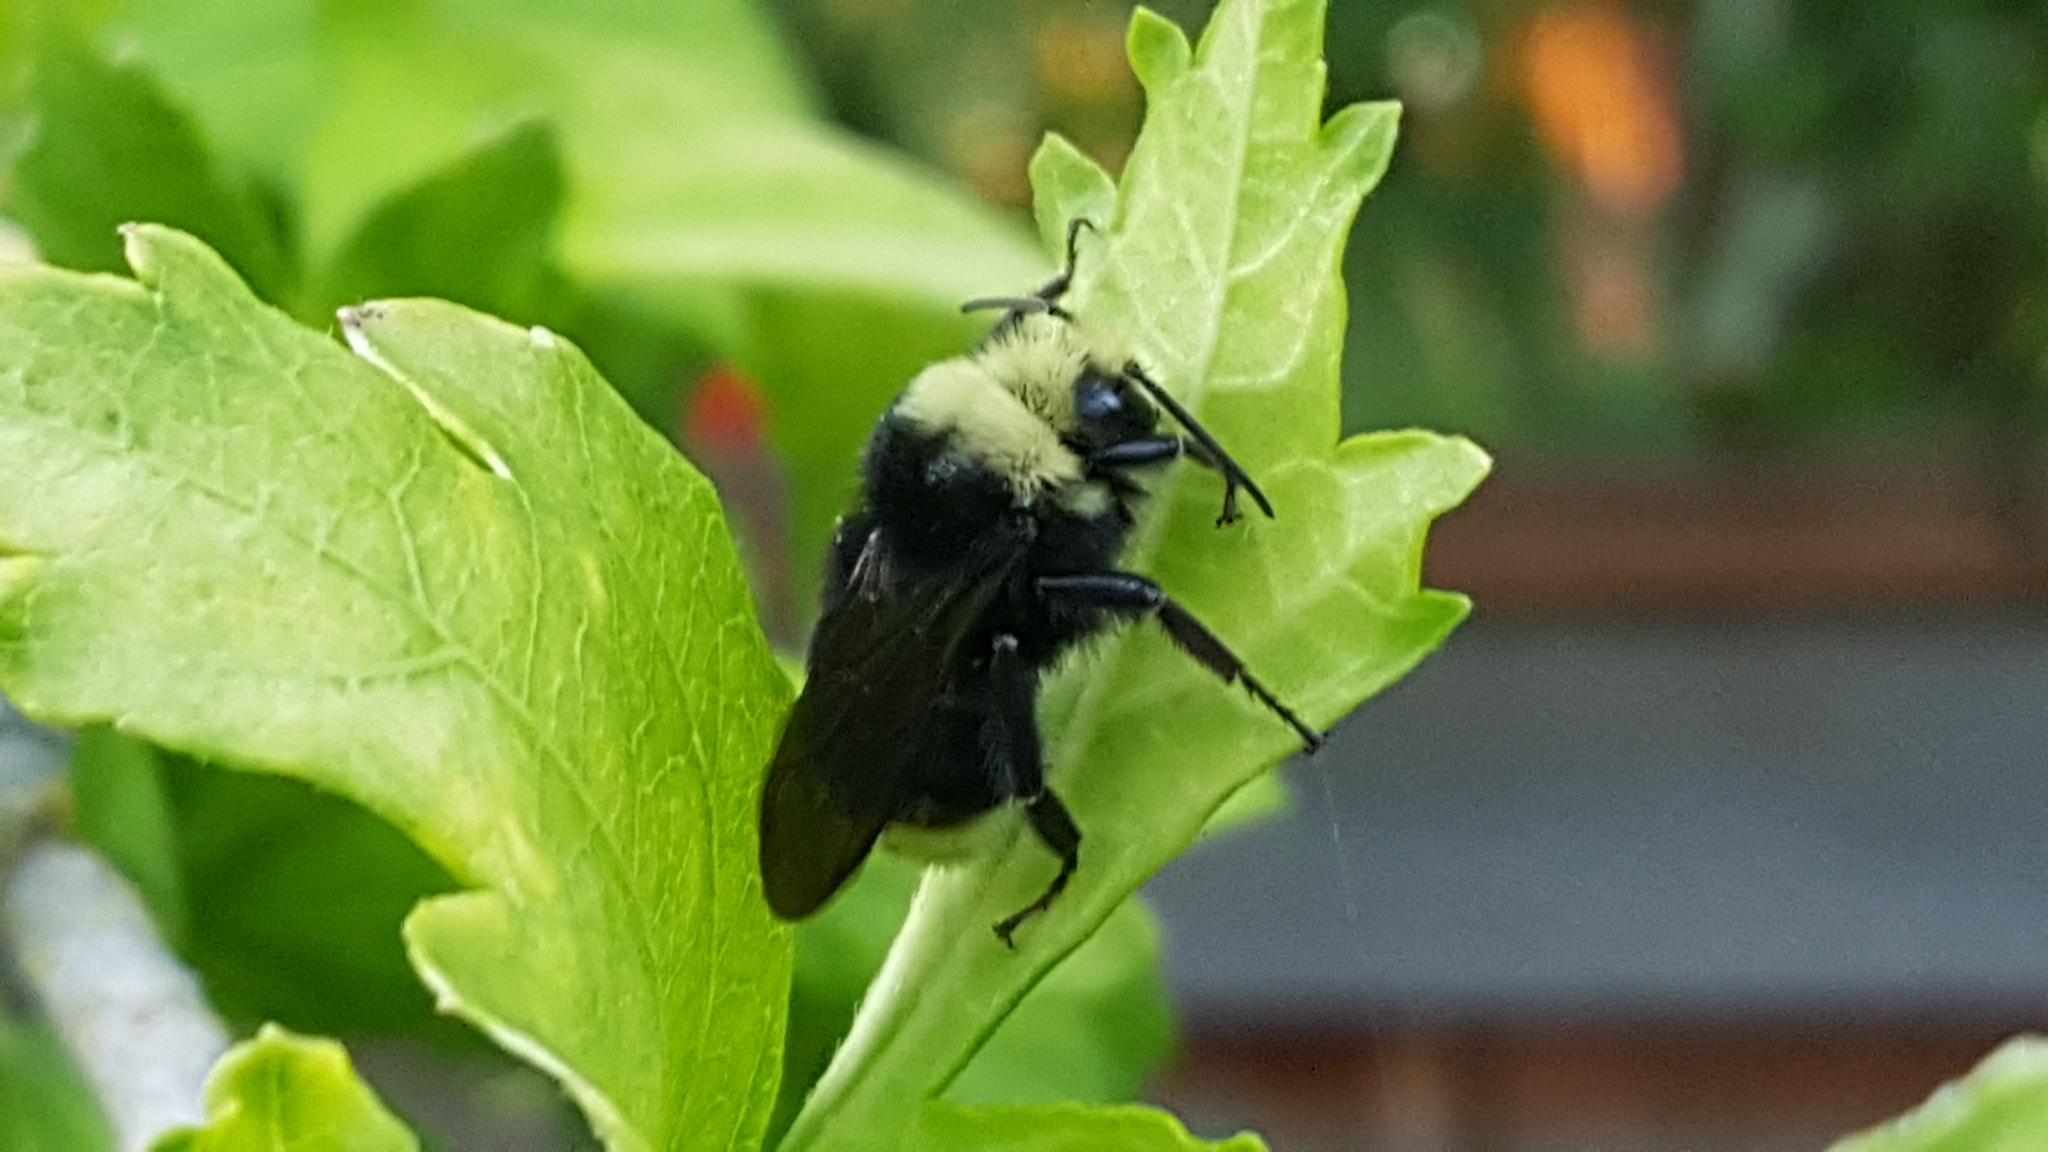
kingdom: Animalia
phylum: Arthropoda
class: Insecta
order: Hymenoptera
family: Apidae
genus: Bombus
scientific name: Bombus vosnesenskii
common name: Vosnesensky bumble bee
